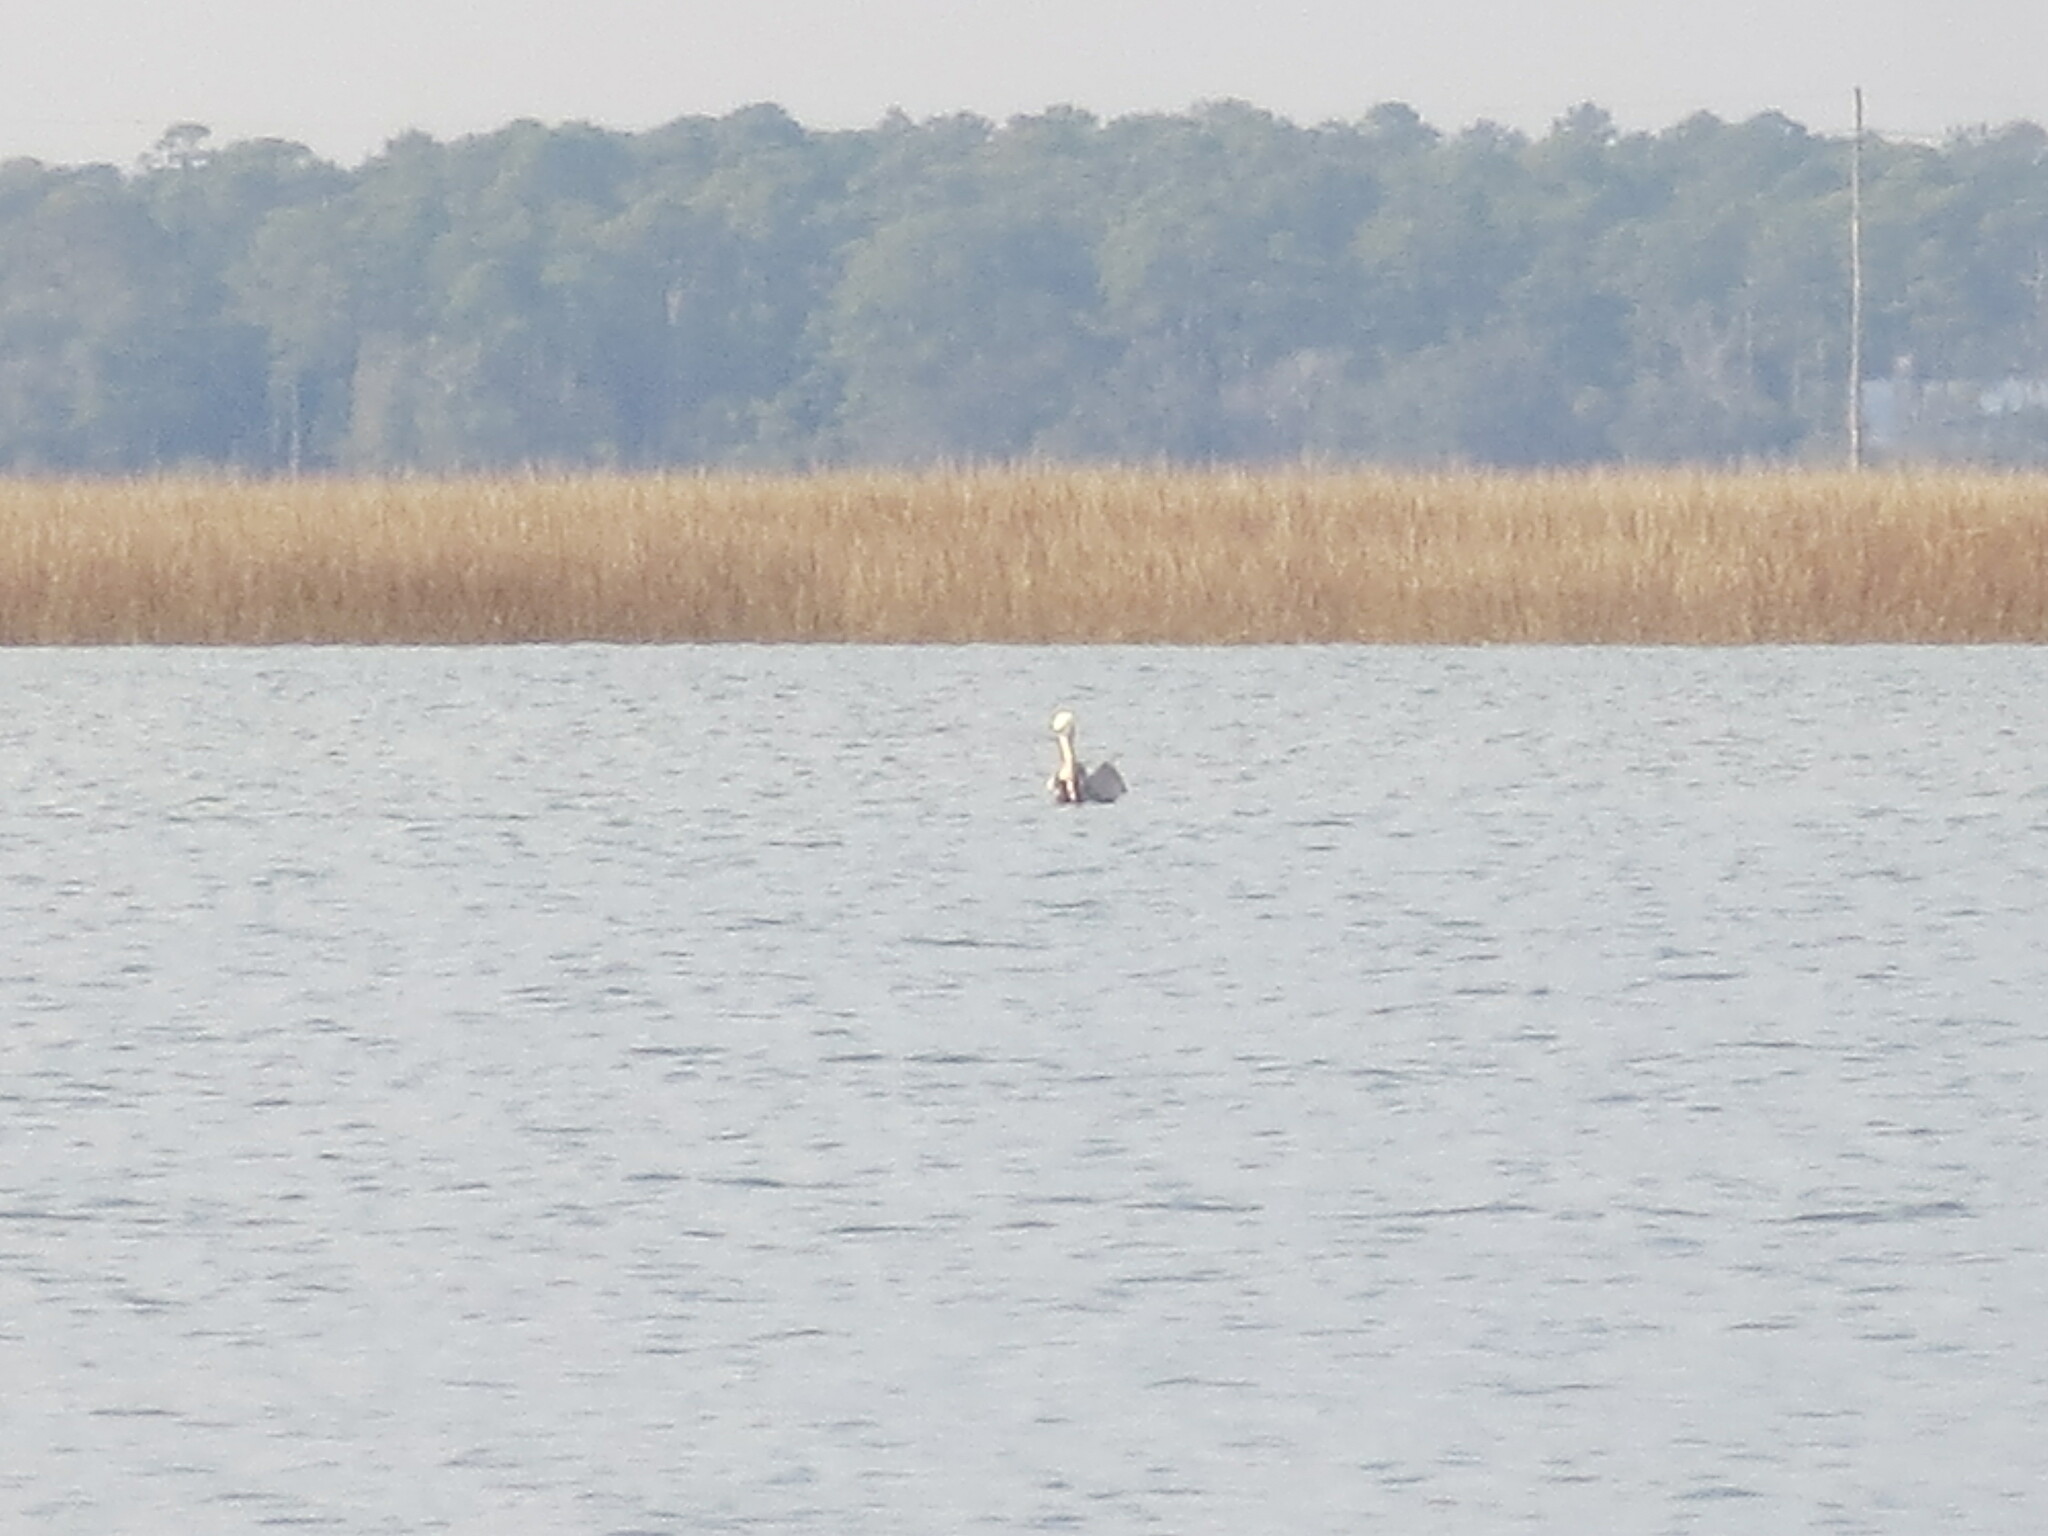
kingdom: Animalia
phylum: Chordata
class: Aves
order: Pelecaniformes
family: Pelecanidae
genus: Pelecanus
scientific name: Pelecanus occidentalis
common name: Brown pelican
